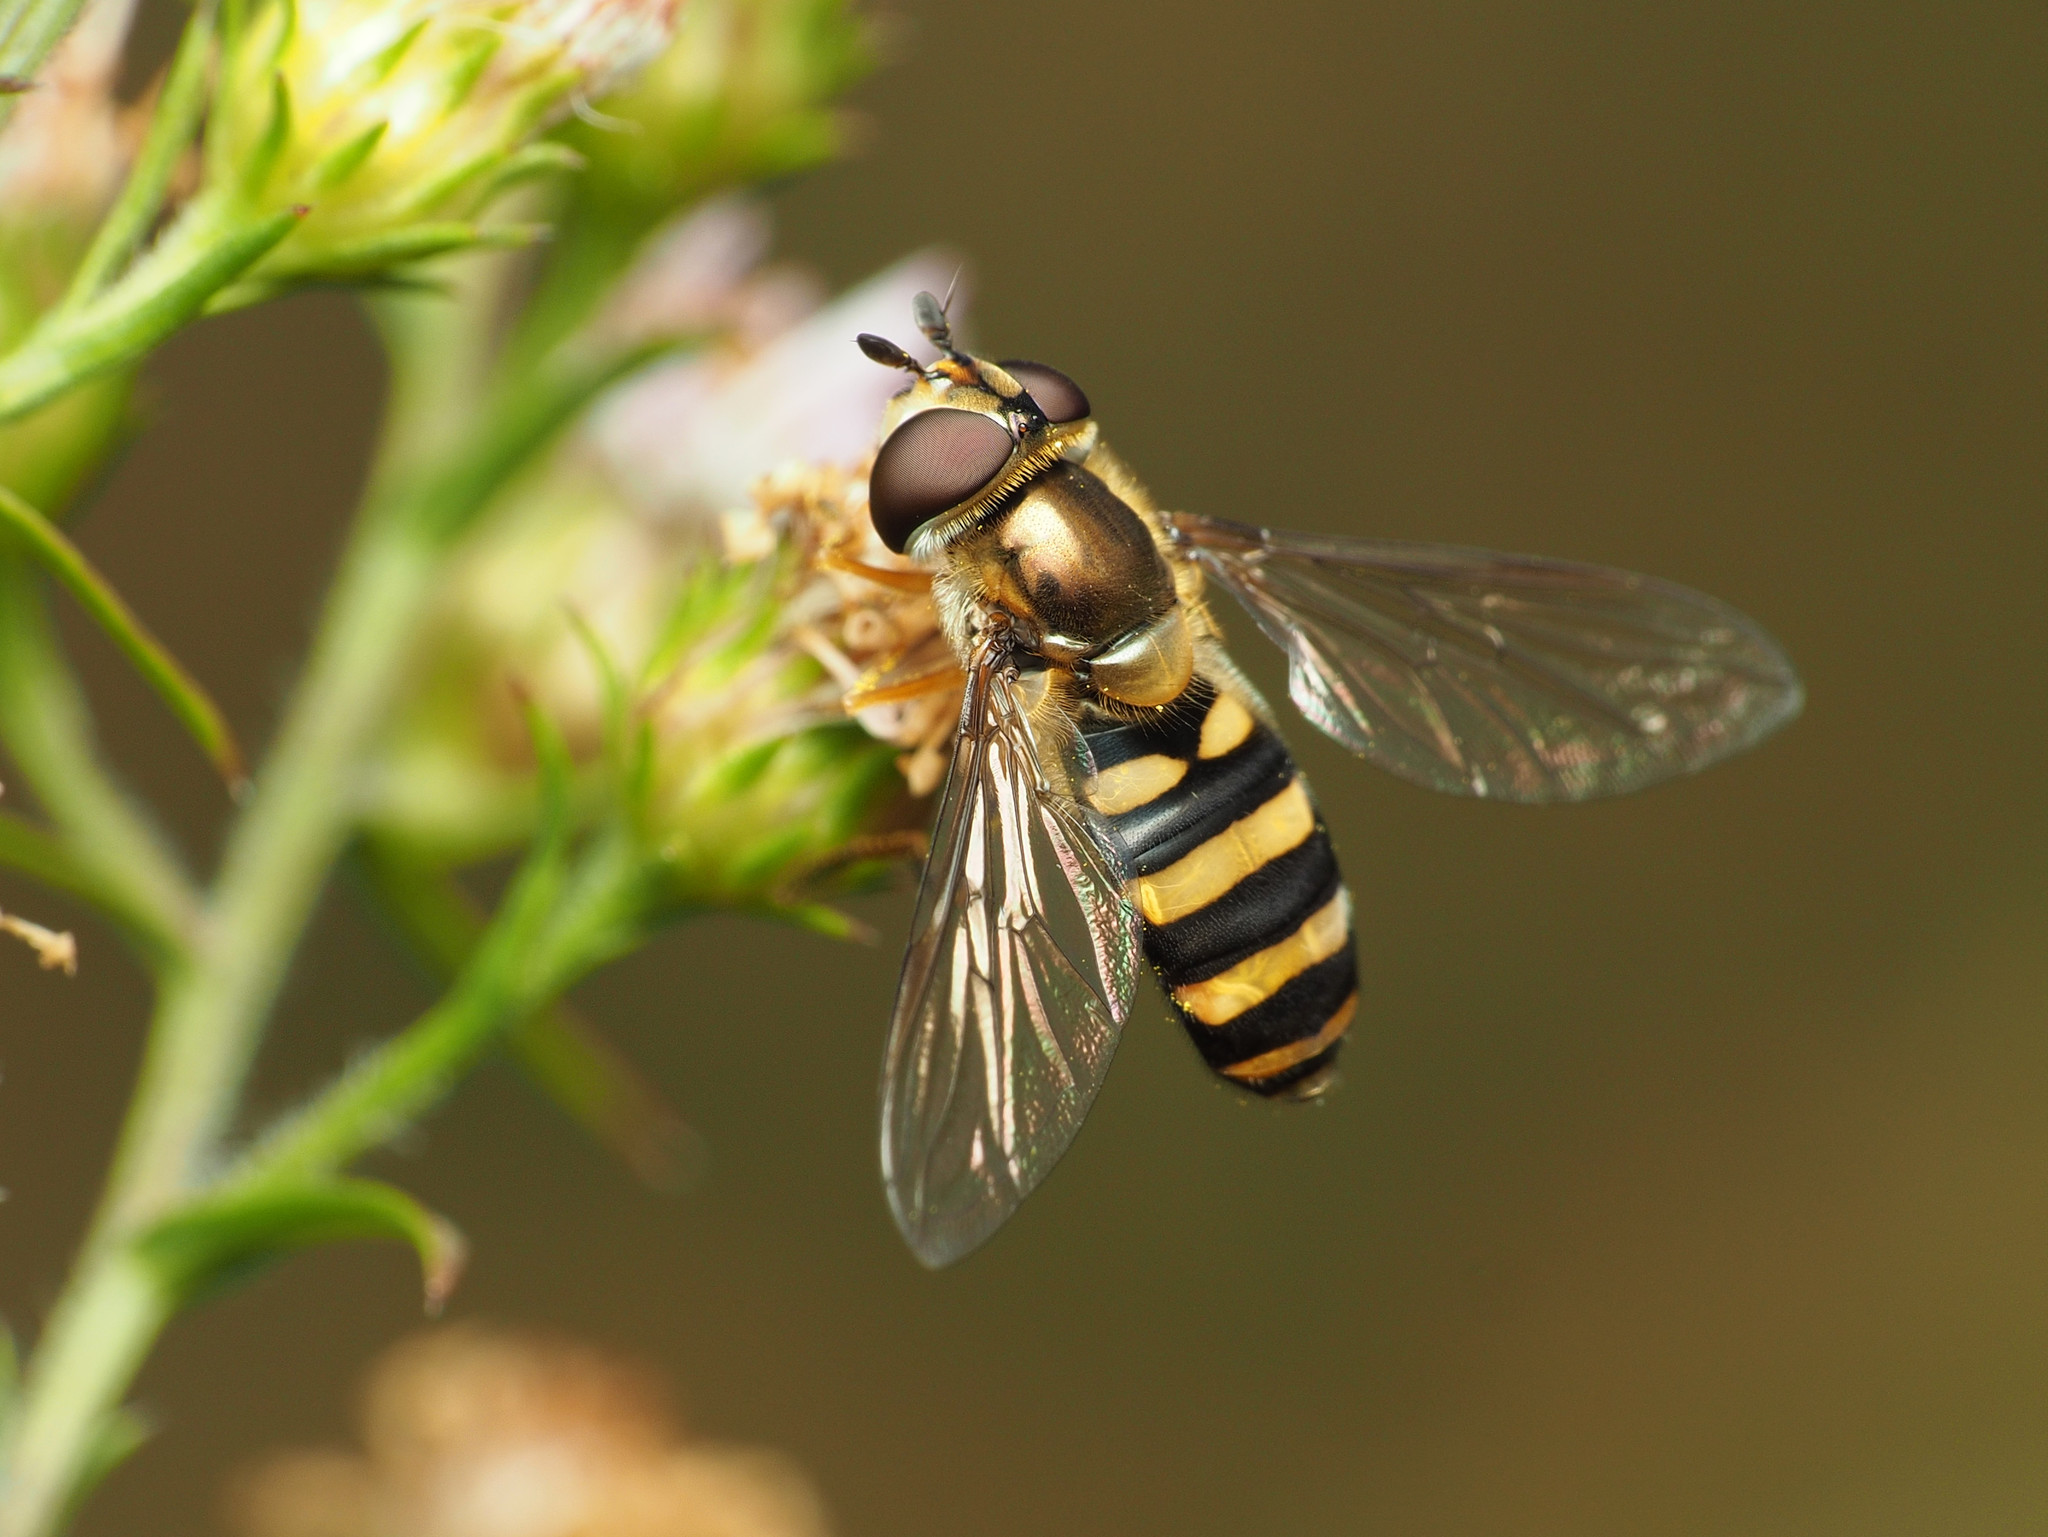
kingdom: Animalia
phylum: Arthropoda
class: Insecta
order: Diptera
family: Syrphidae
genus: Eupeodes
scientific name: Eupeodes
